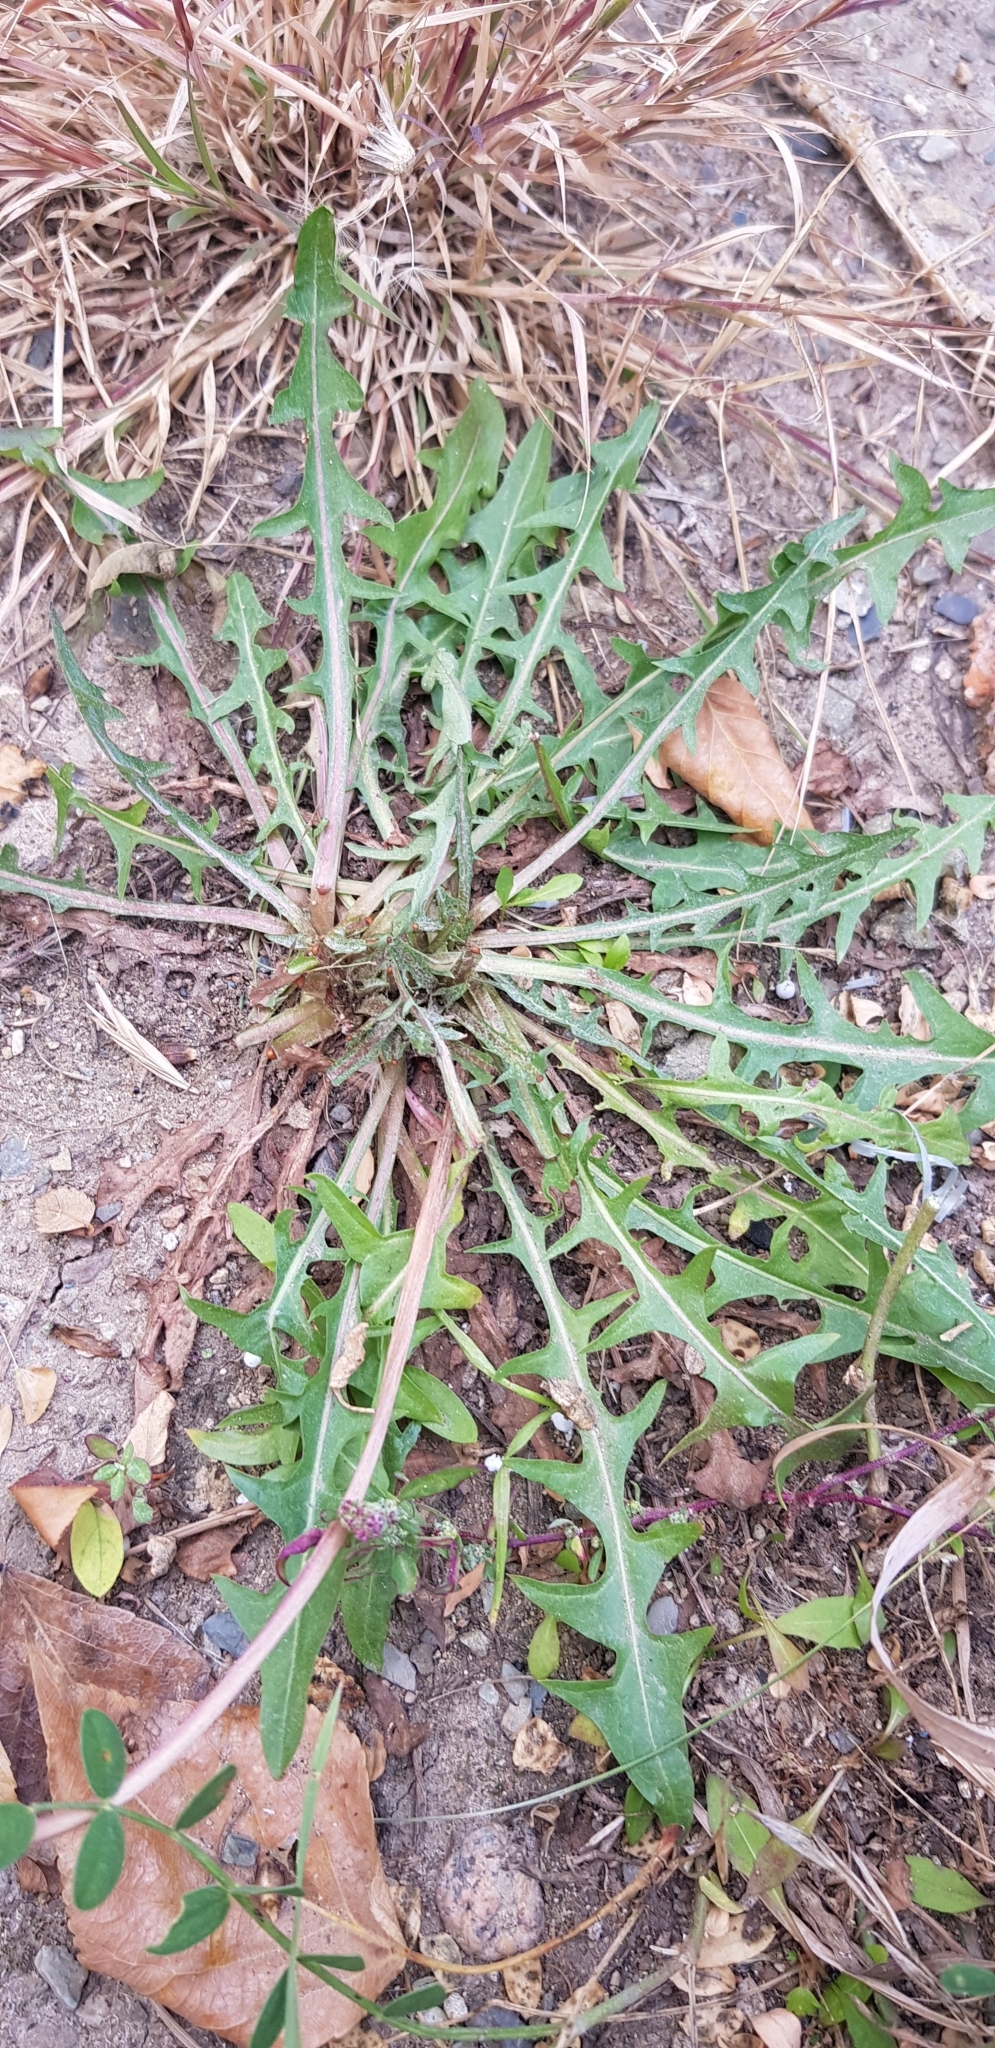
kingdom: Plantae
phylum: Tracheophyta
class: Magnoliopsida
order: Asterales
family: Asteraceae
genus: Taraxacum
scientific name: Taraxacum officinale
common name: Common dandelion
